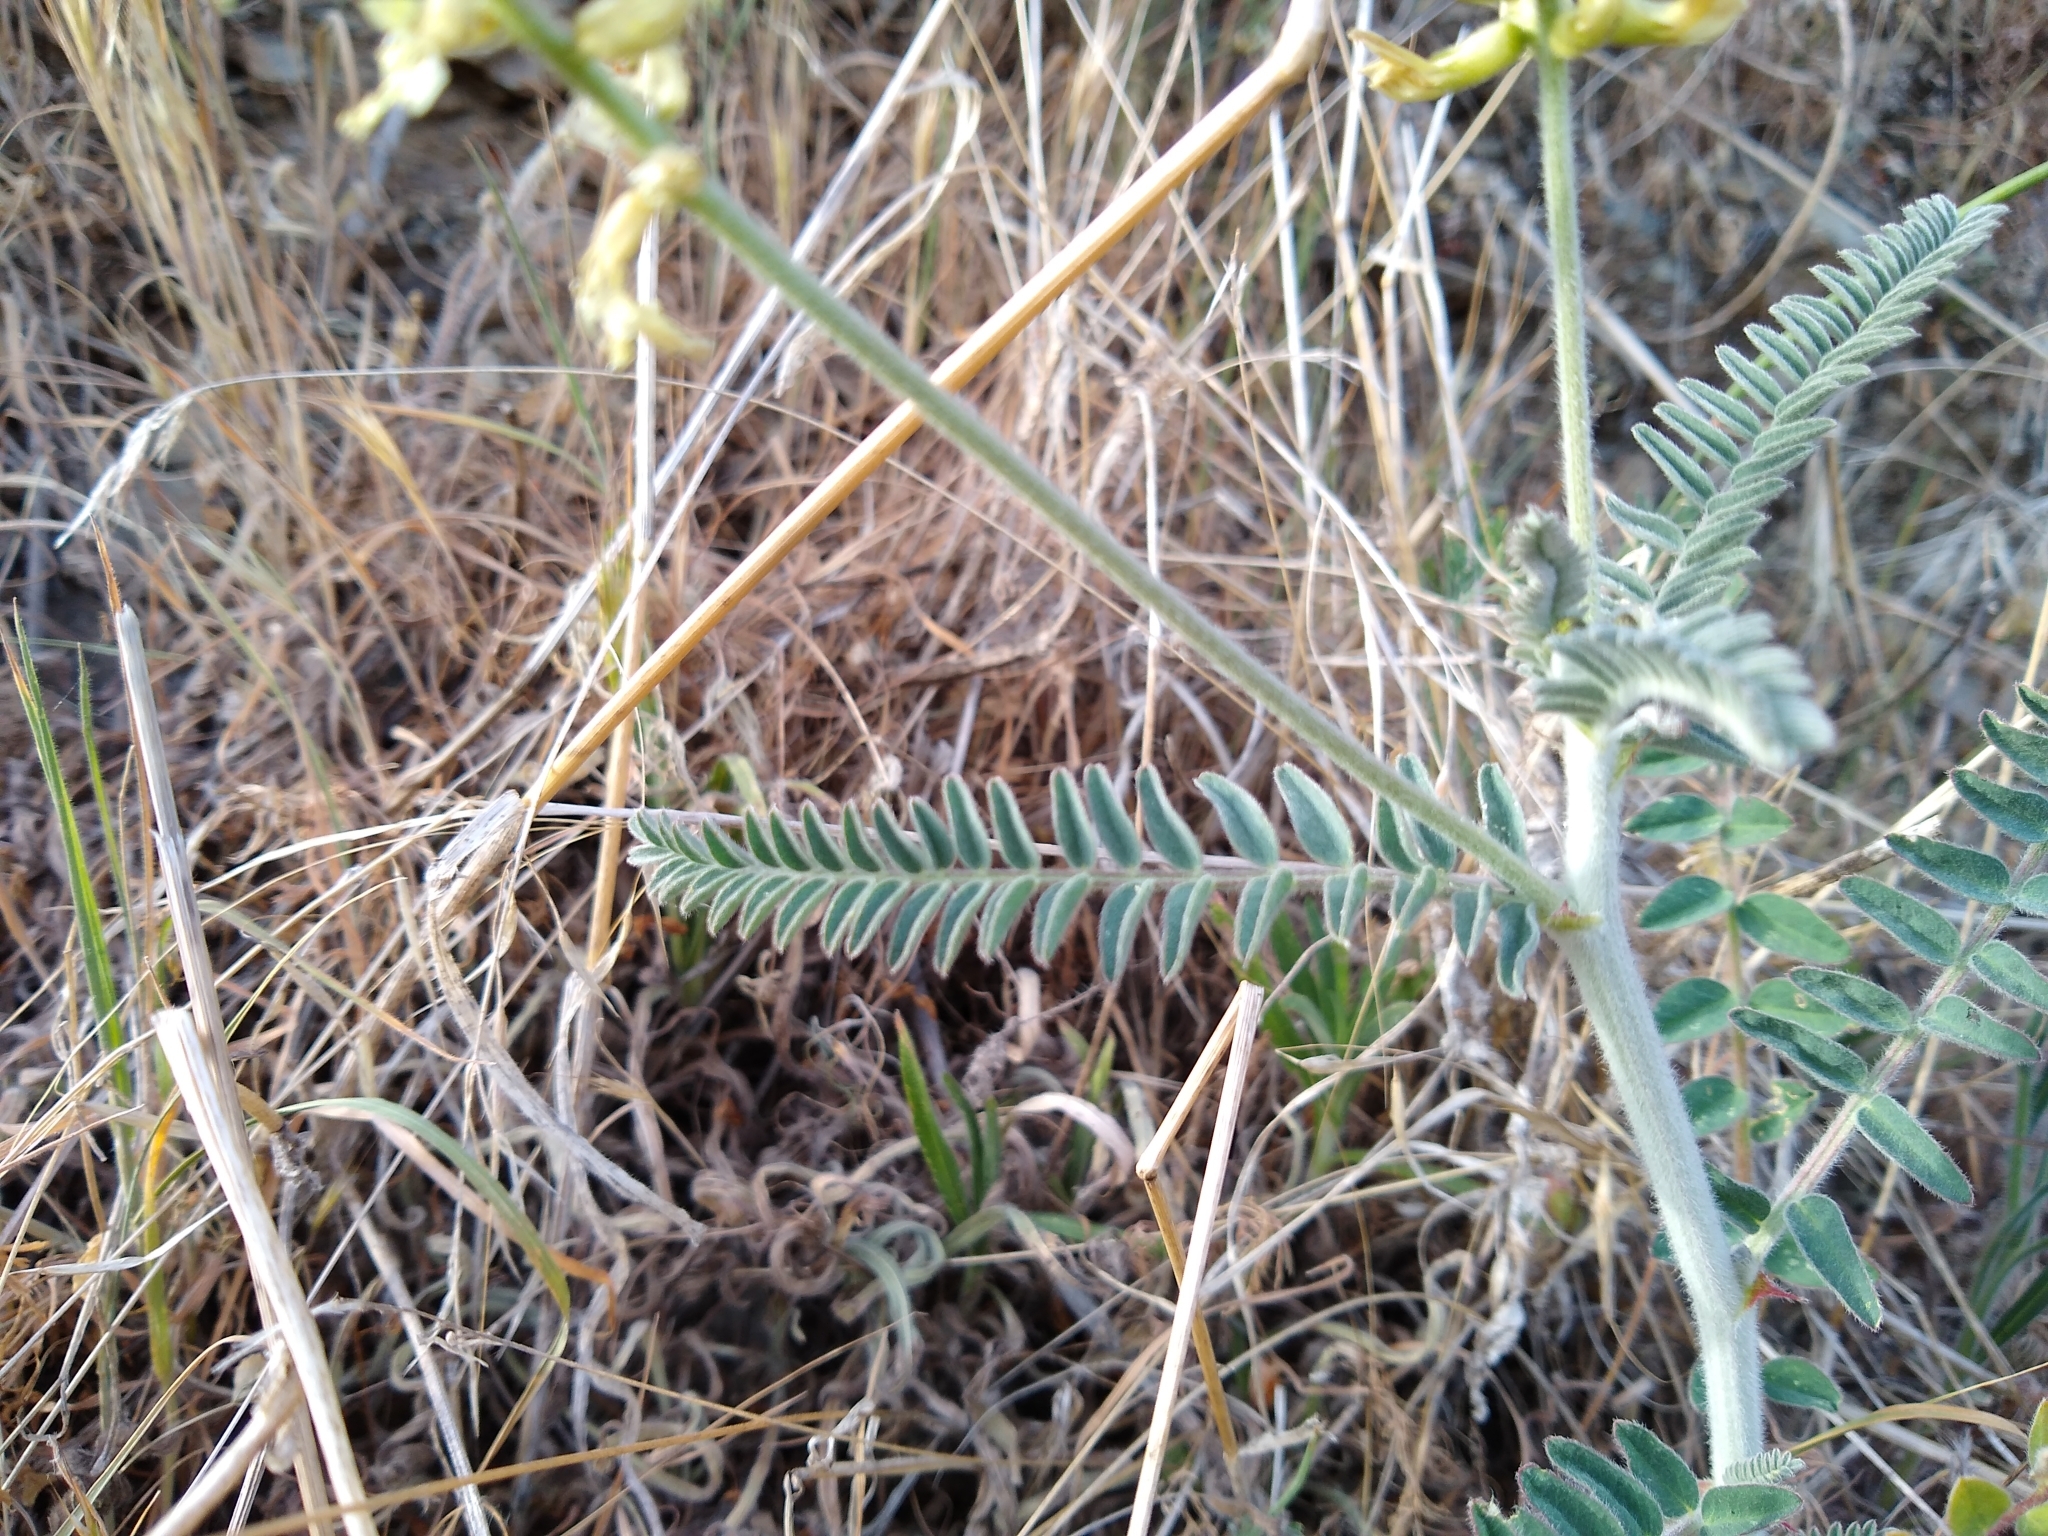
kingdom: Plantae
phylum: Tracheophyta
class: Magnoliopsida
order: Fabales
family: Fabaceae
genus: Astragalus
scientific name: Astragalus congdonii
